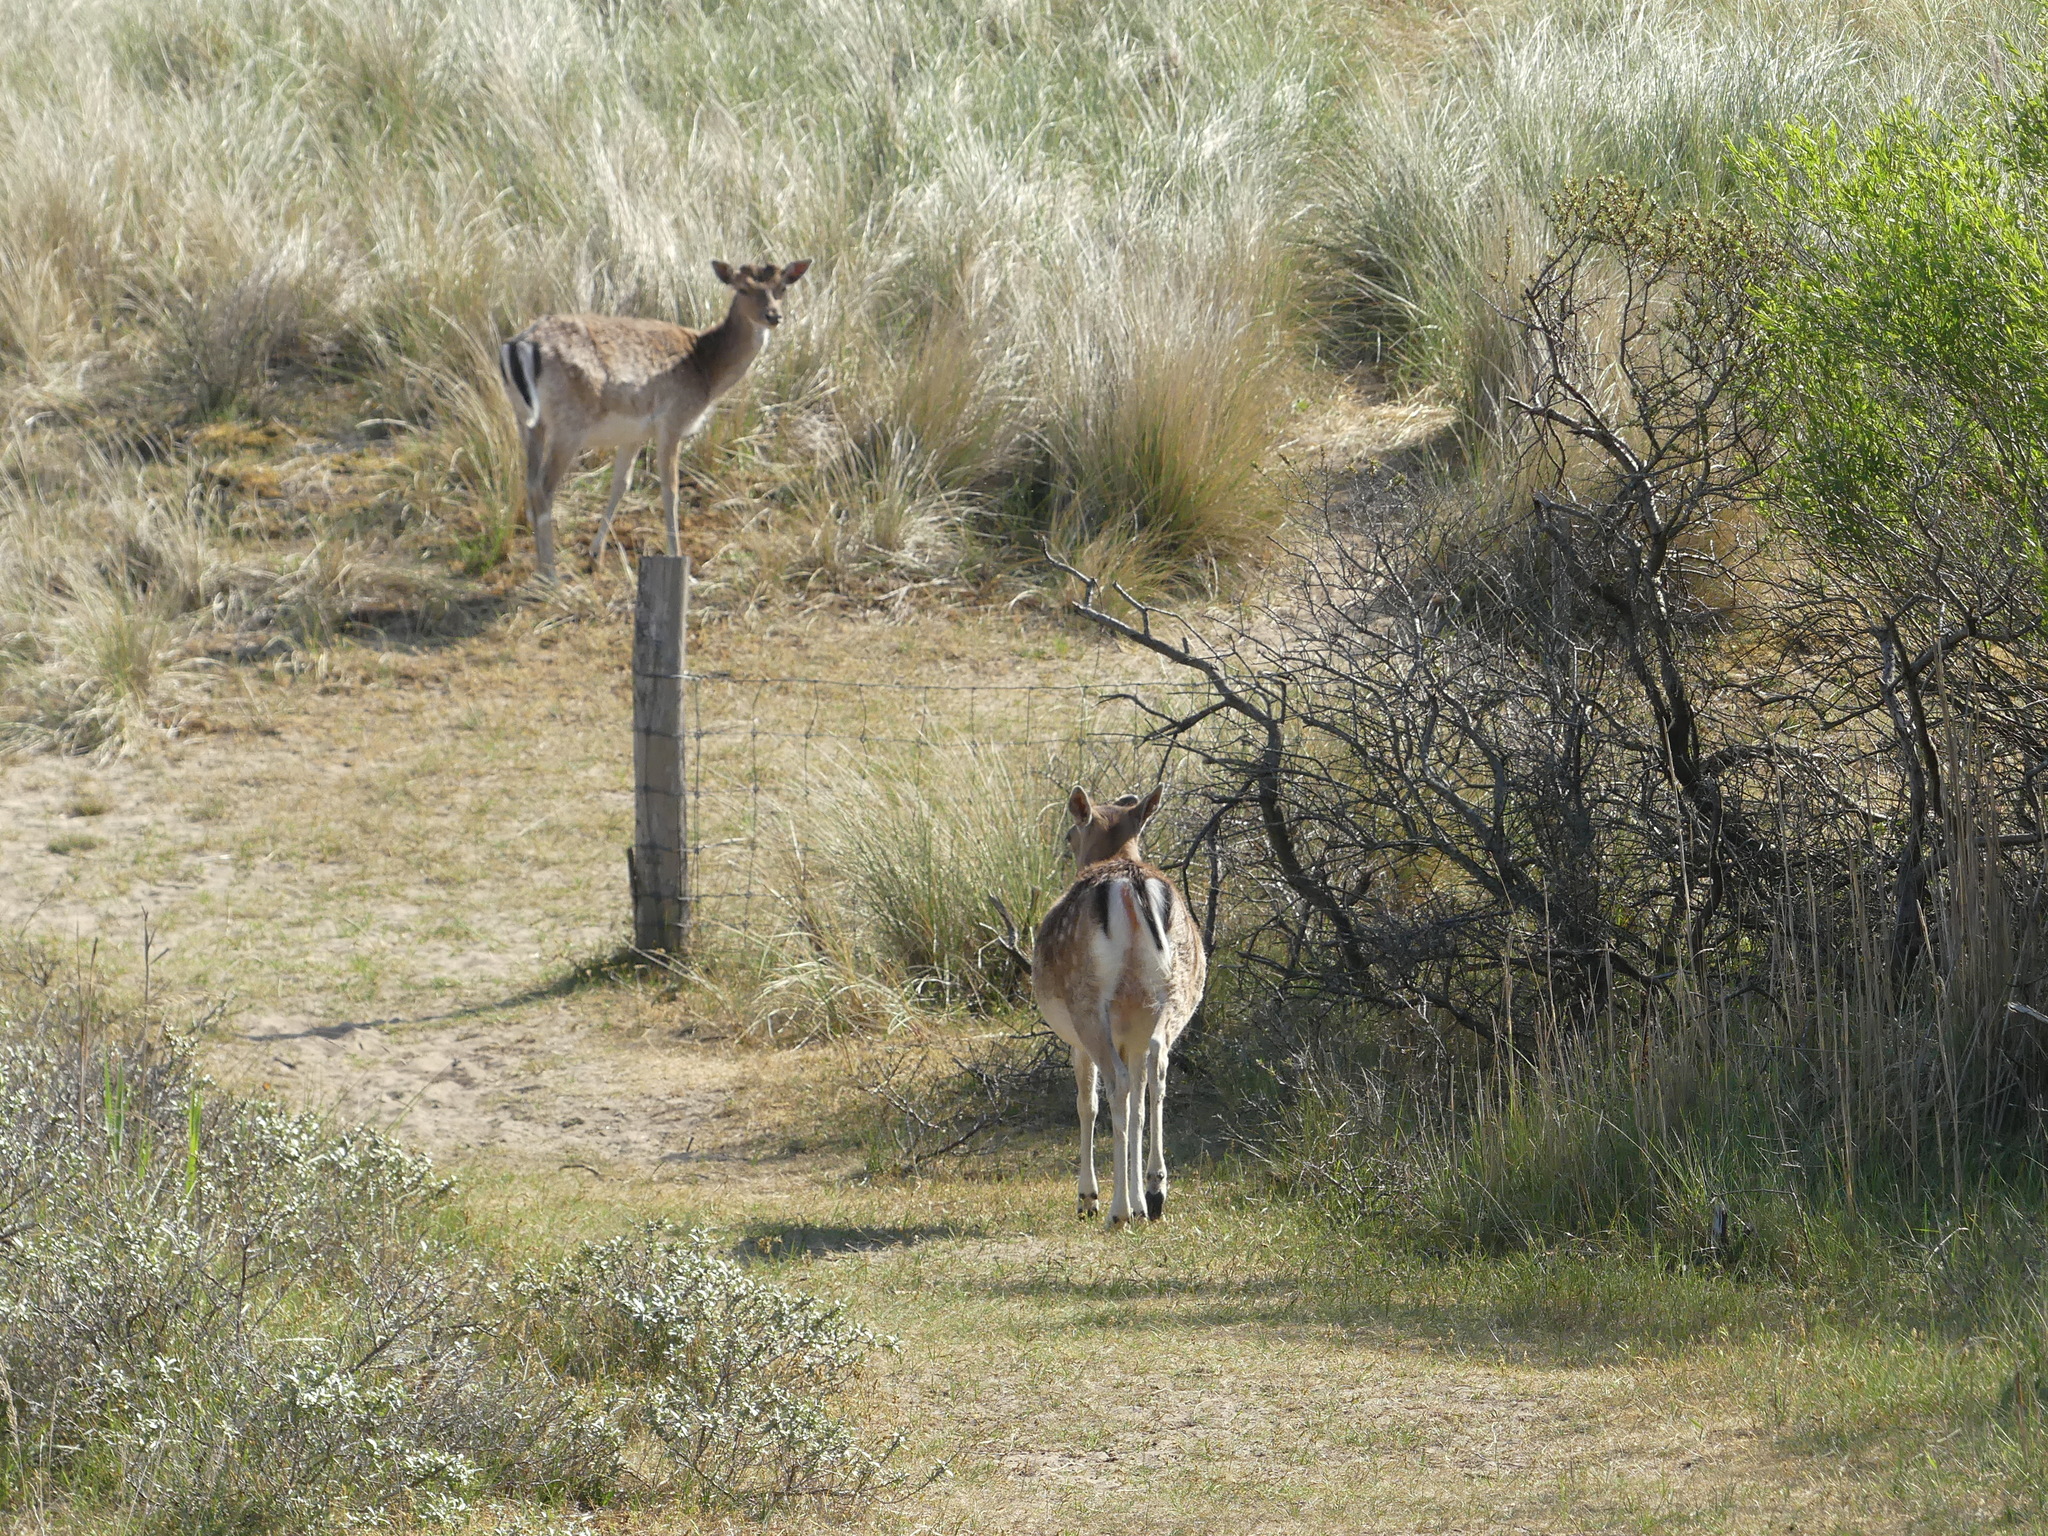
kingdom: Animalia
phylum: Chordata
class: Mammalia
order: Artiodactyla
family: Cervidae
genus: Dama
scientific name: Dama dama
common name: Fallow deer
